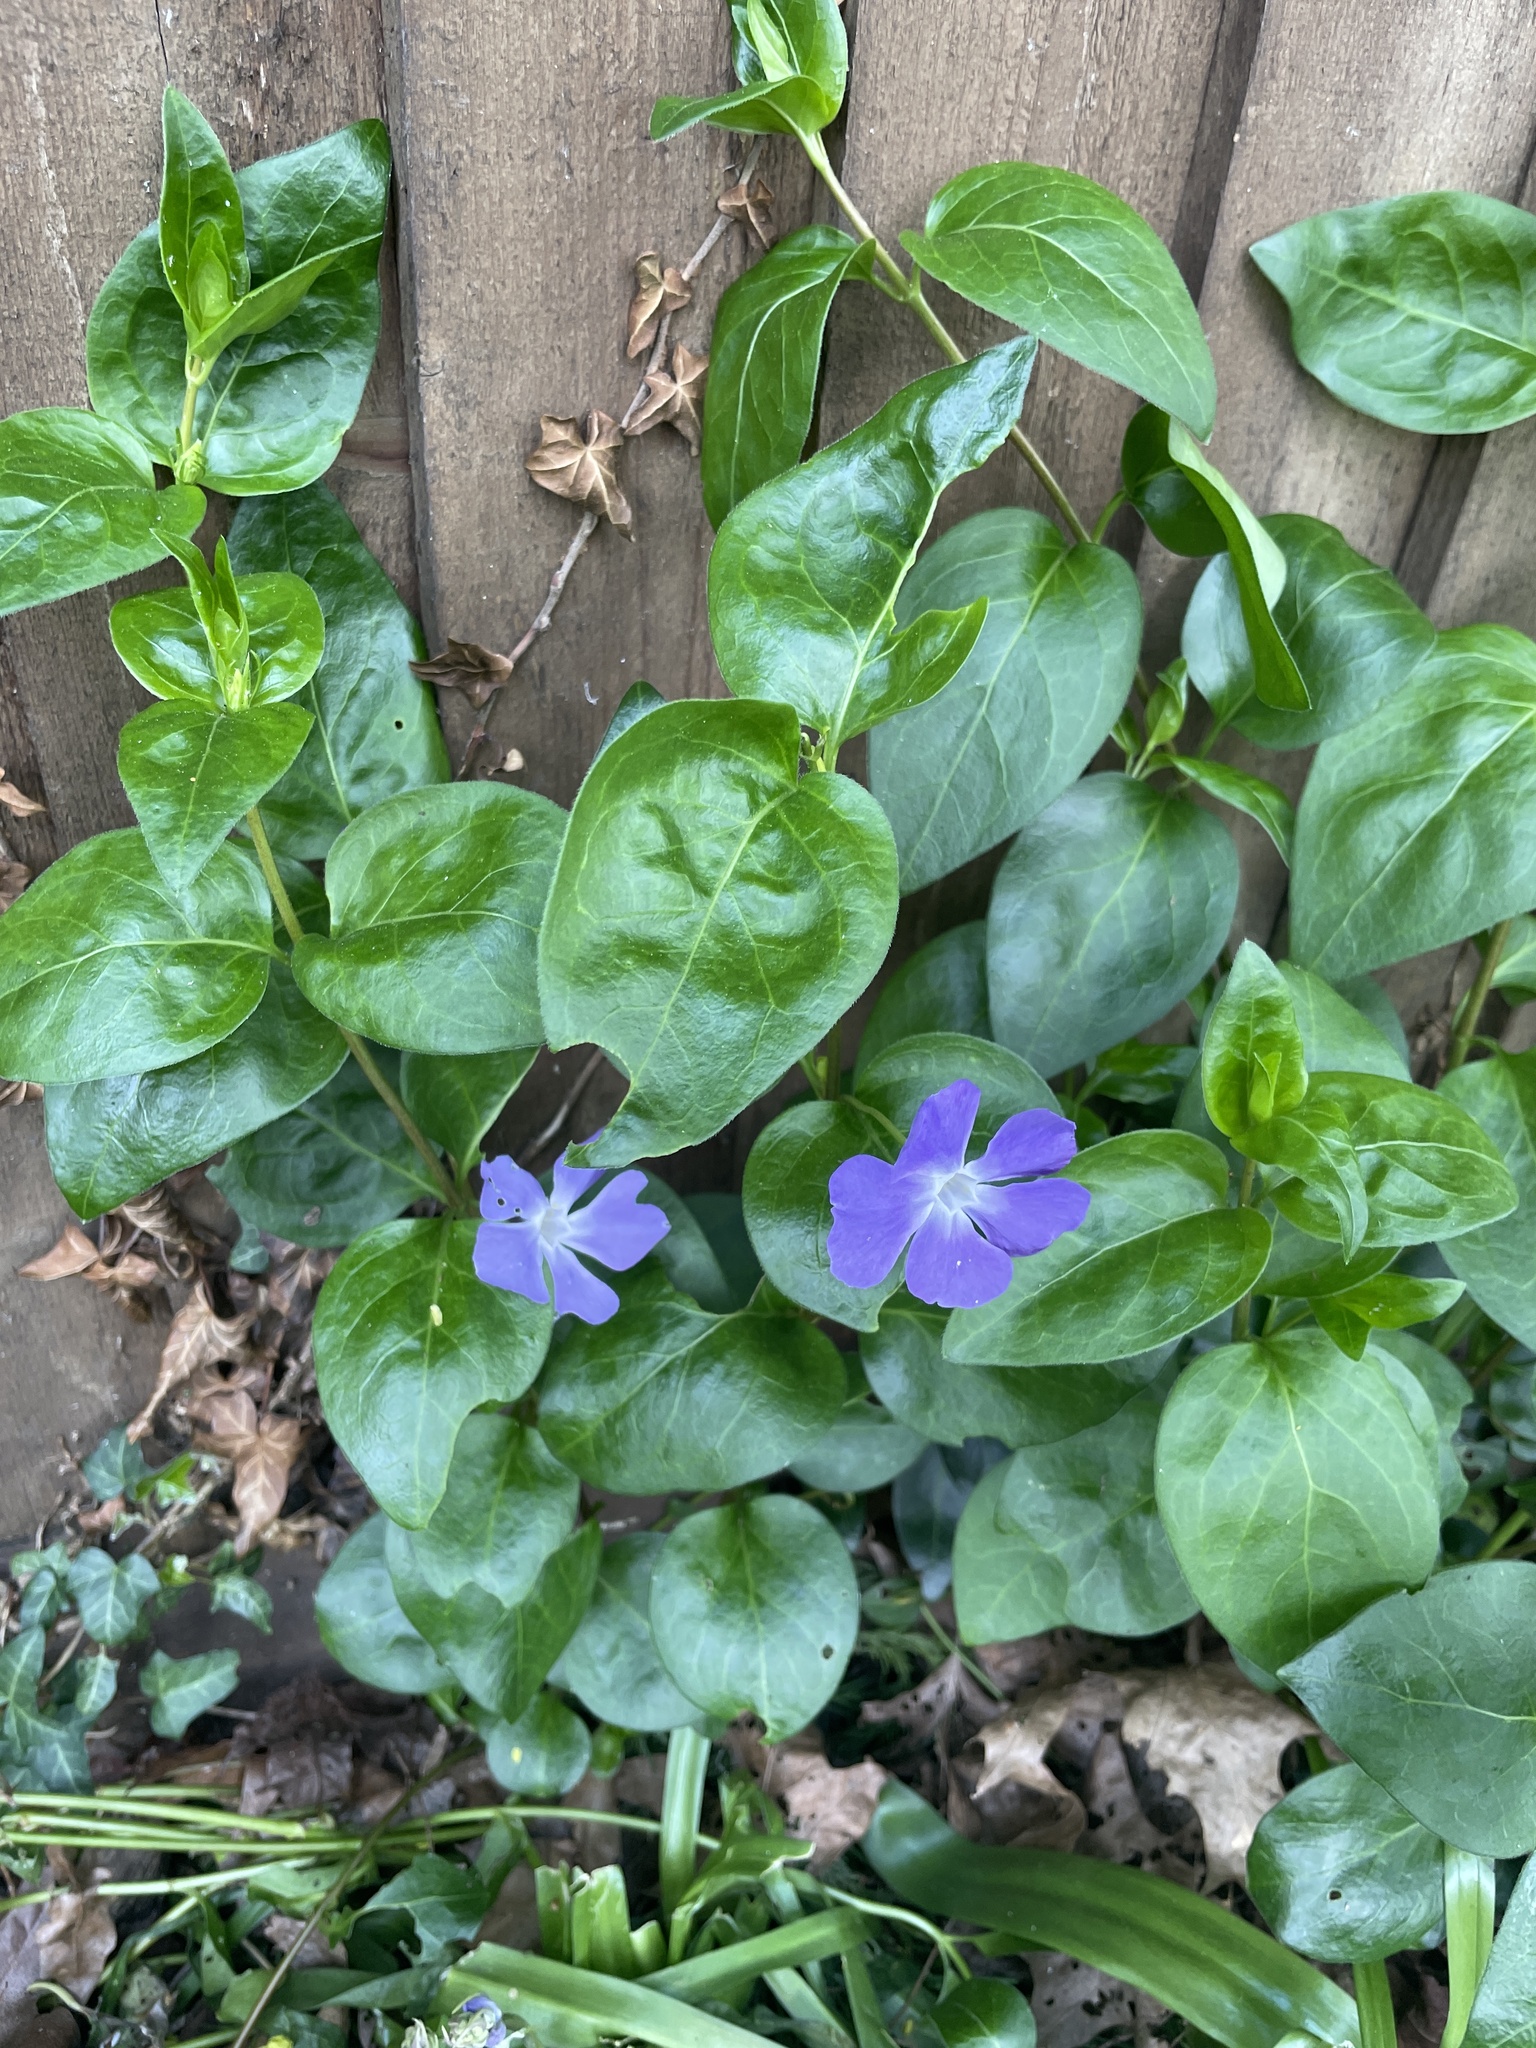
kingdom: Plantae
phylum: Tracheophyta
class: Magnoliopsida
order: Gentianales
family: Apocynaceae
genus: Vinca
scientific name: Vinca major
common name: Greater periwinkle
